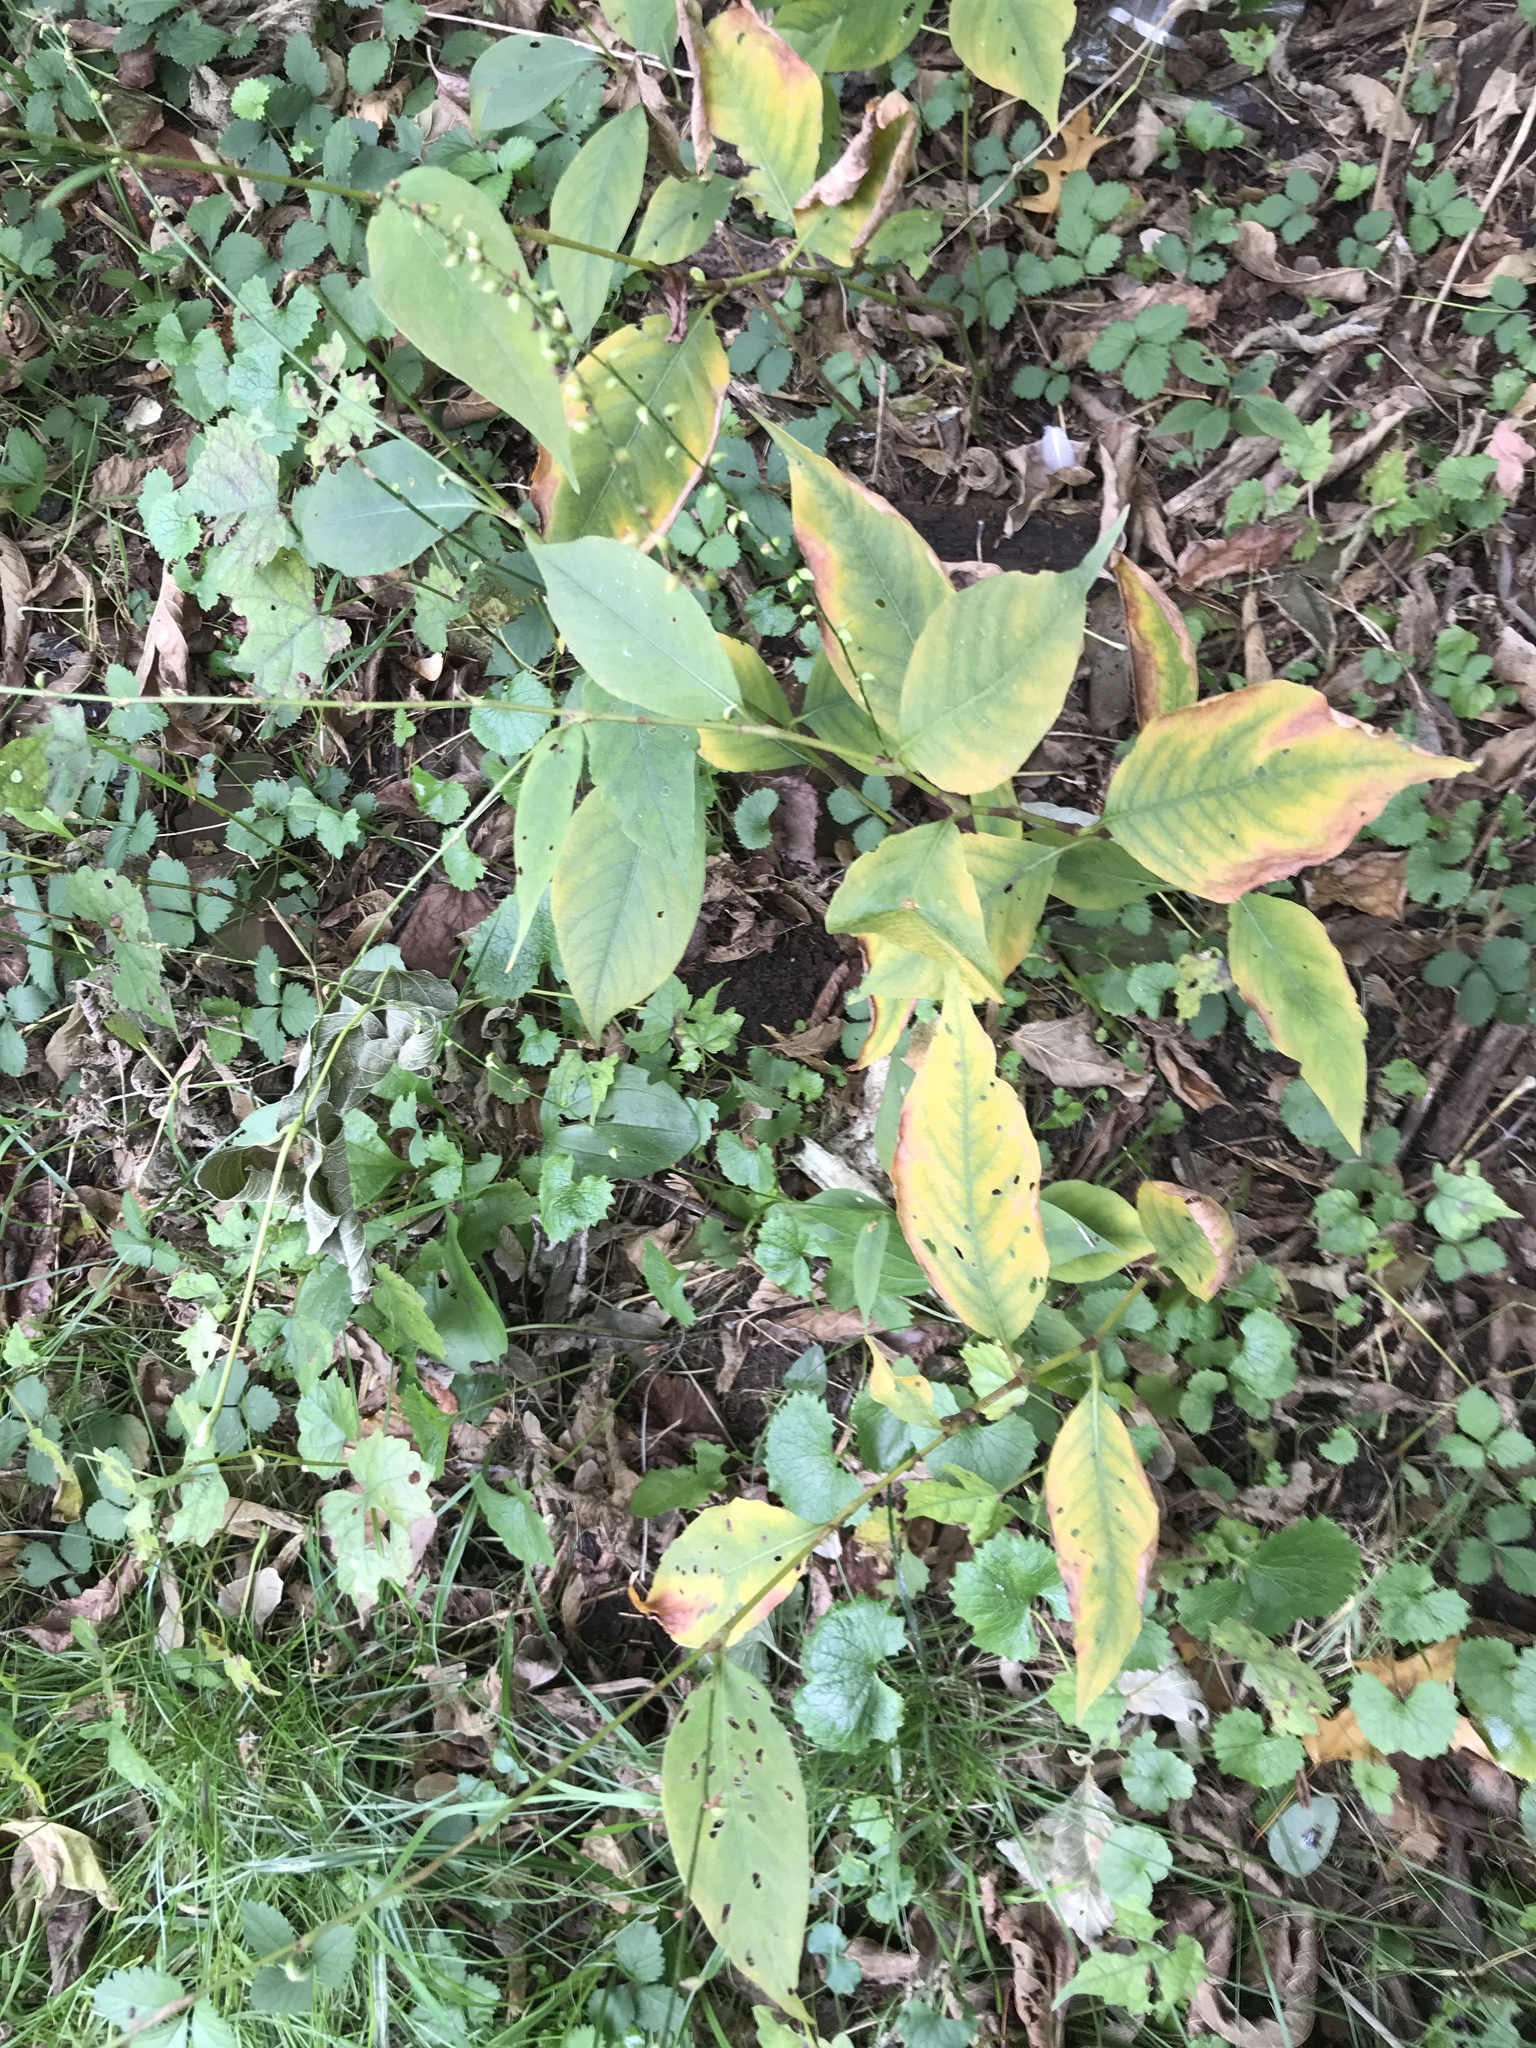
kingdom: Plantae
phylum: Tracheophyta
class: Magnoliopsida
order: Caryophyllales
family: Polygonaceae
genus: Persicaria
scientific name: Persicaria virginiana
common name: Jumpseed
